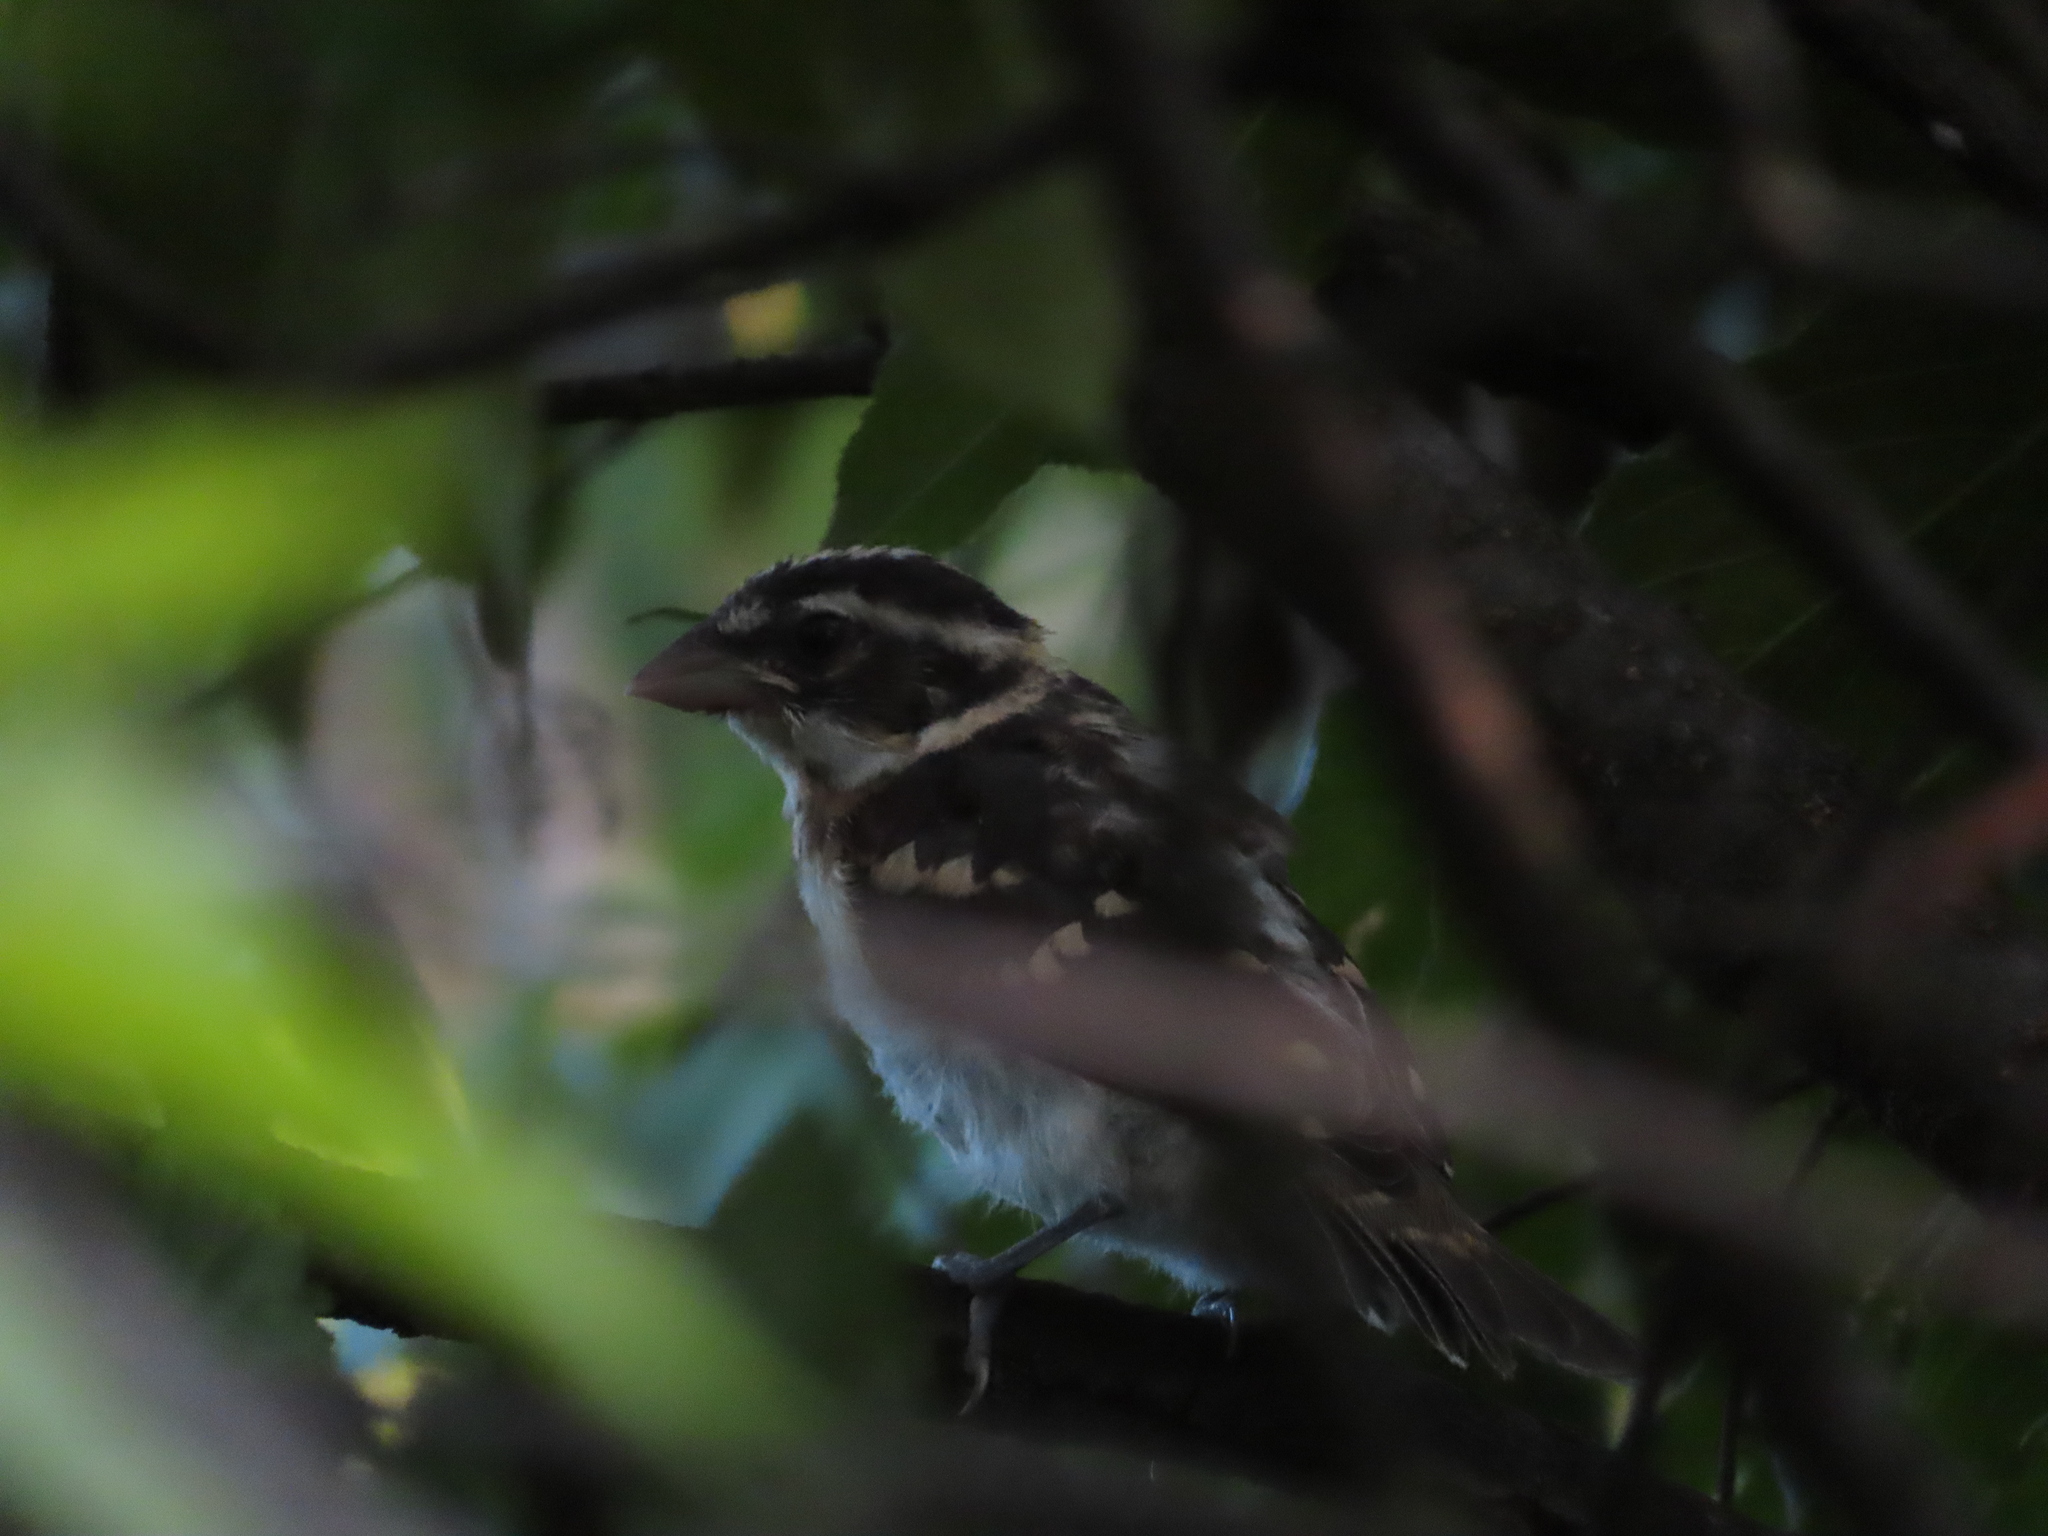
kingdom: Animalia
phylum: Chordata
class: Aves
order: Passeriformes
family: Cardinalidae
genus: Pheucticus
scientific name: Pheucticus ludovicianus
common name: Rose-breasted grosbeak
